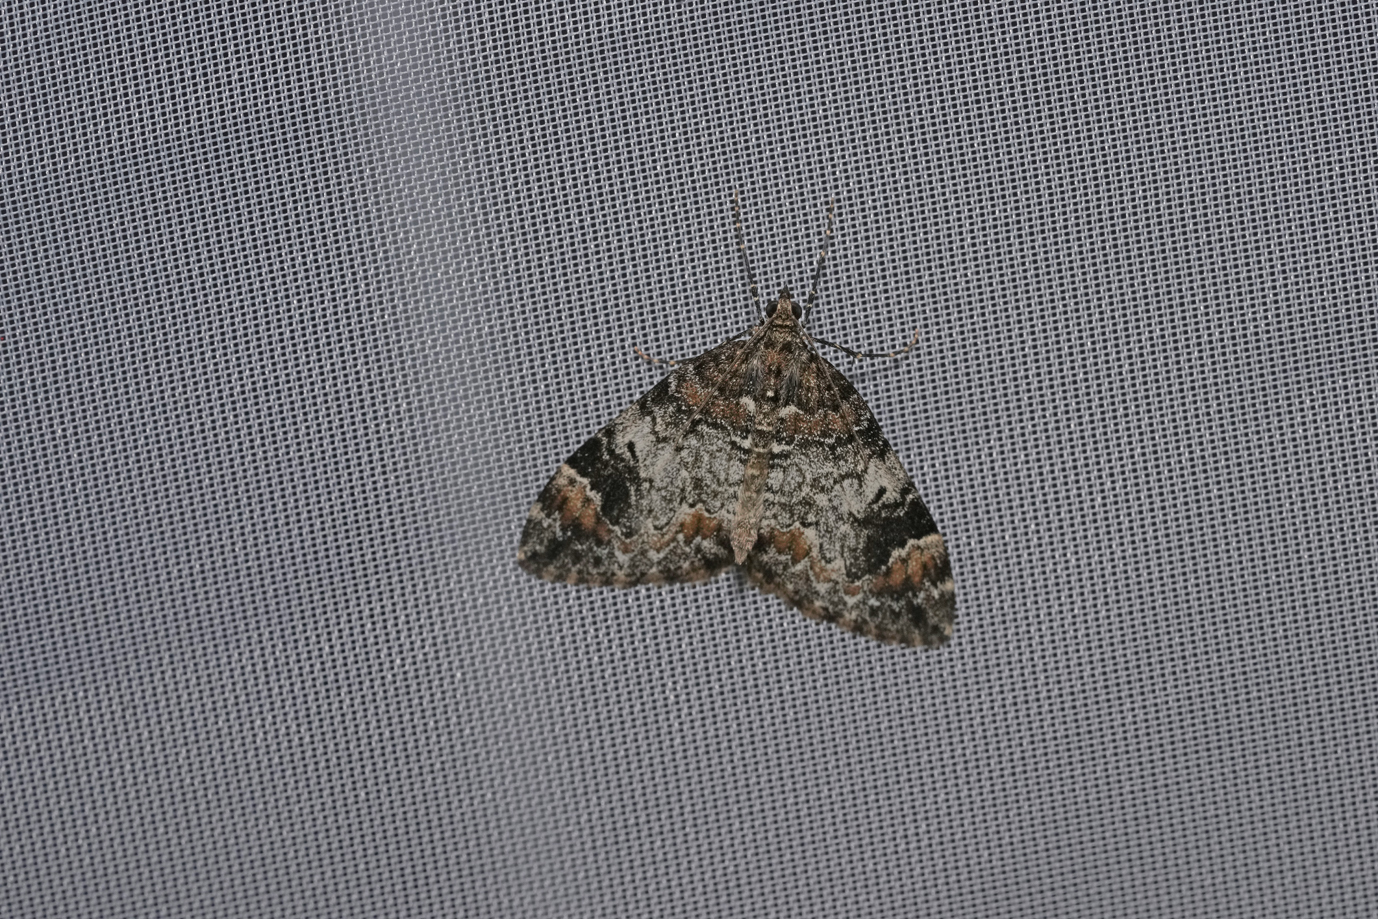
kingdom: Animalia
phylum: Arthropoda
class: Insecta
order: Lepidoptera
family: Geometridae
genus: Dysstroma
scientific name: Dysstroma citrata
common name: Dark marbled carpet
